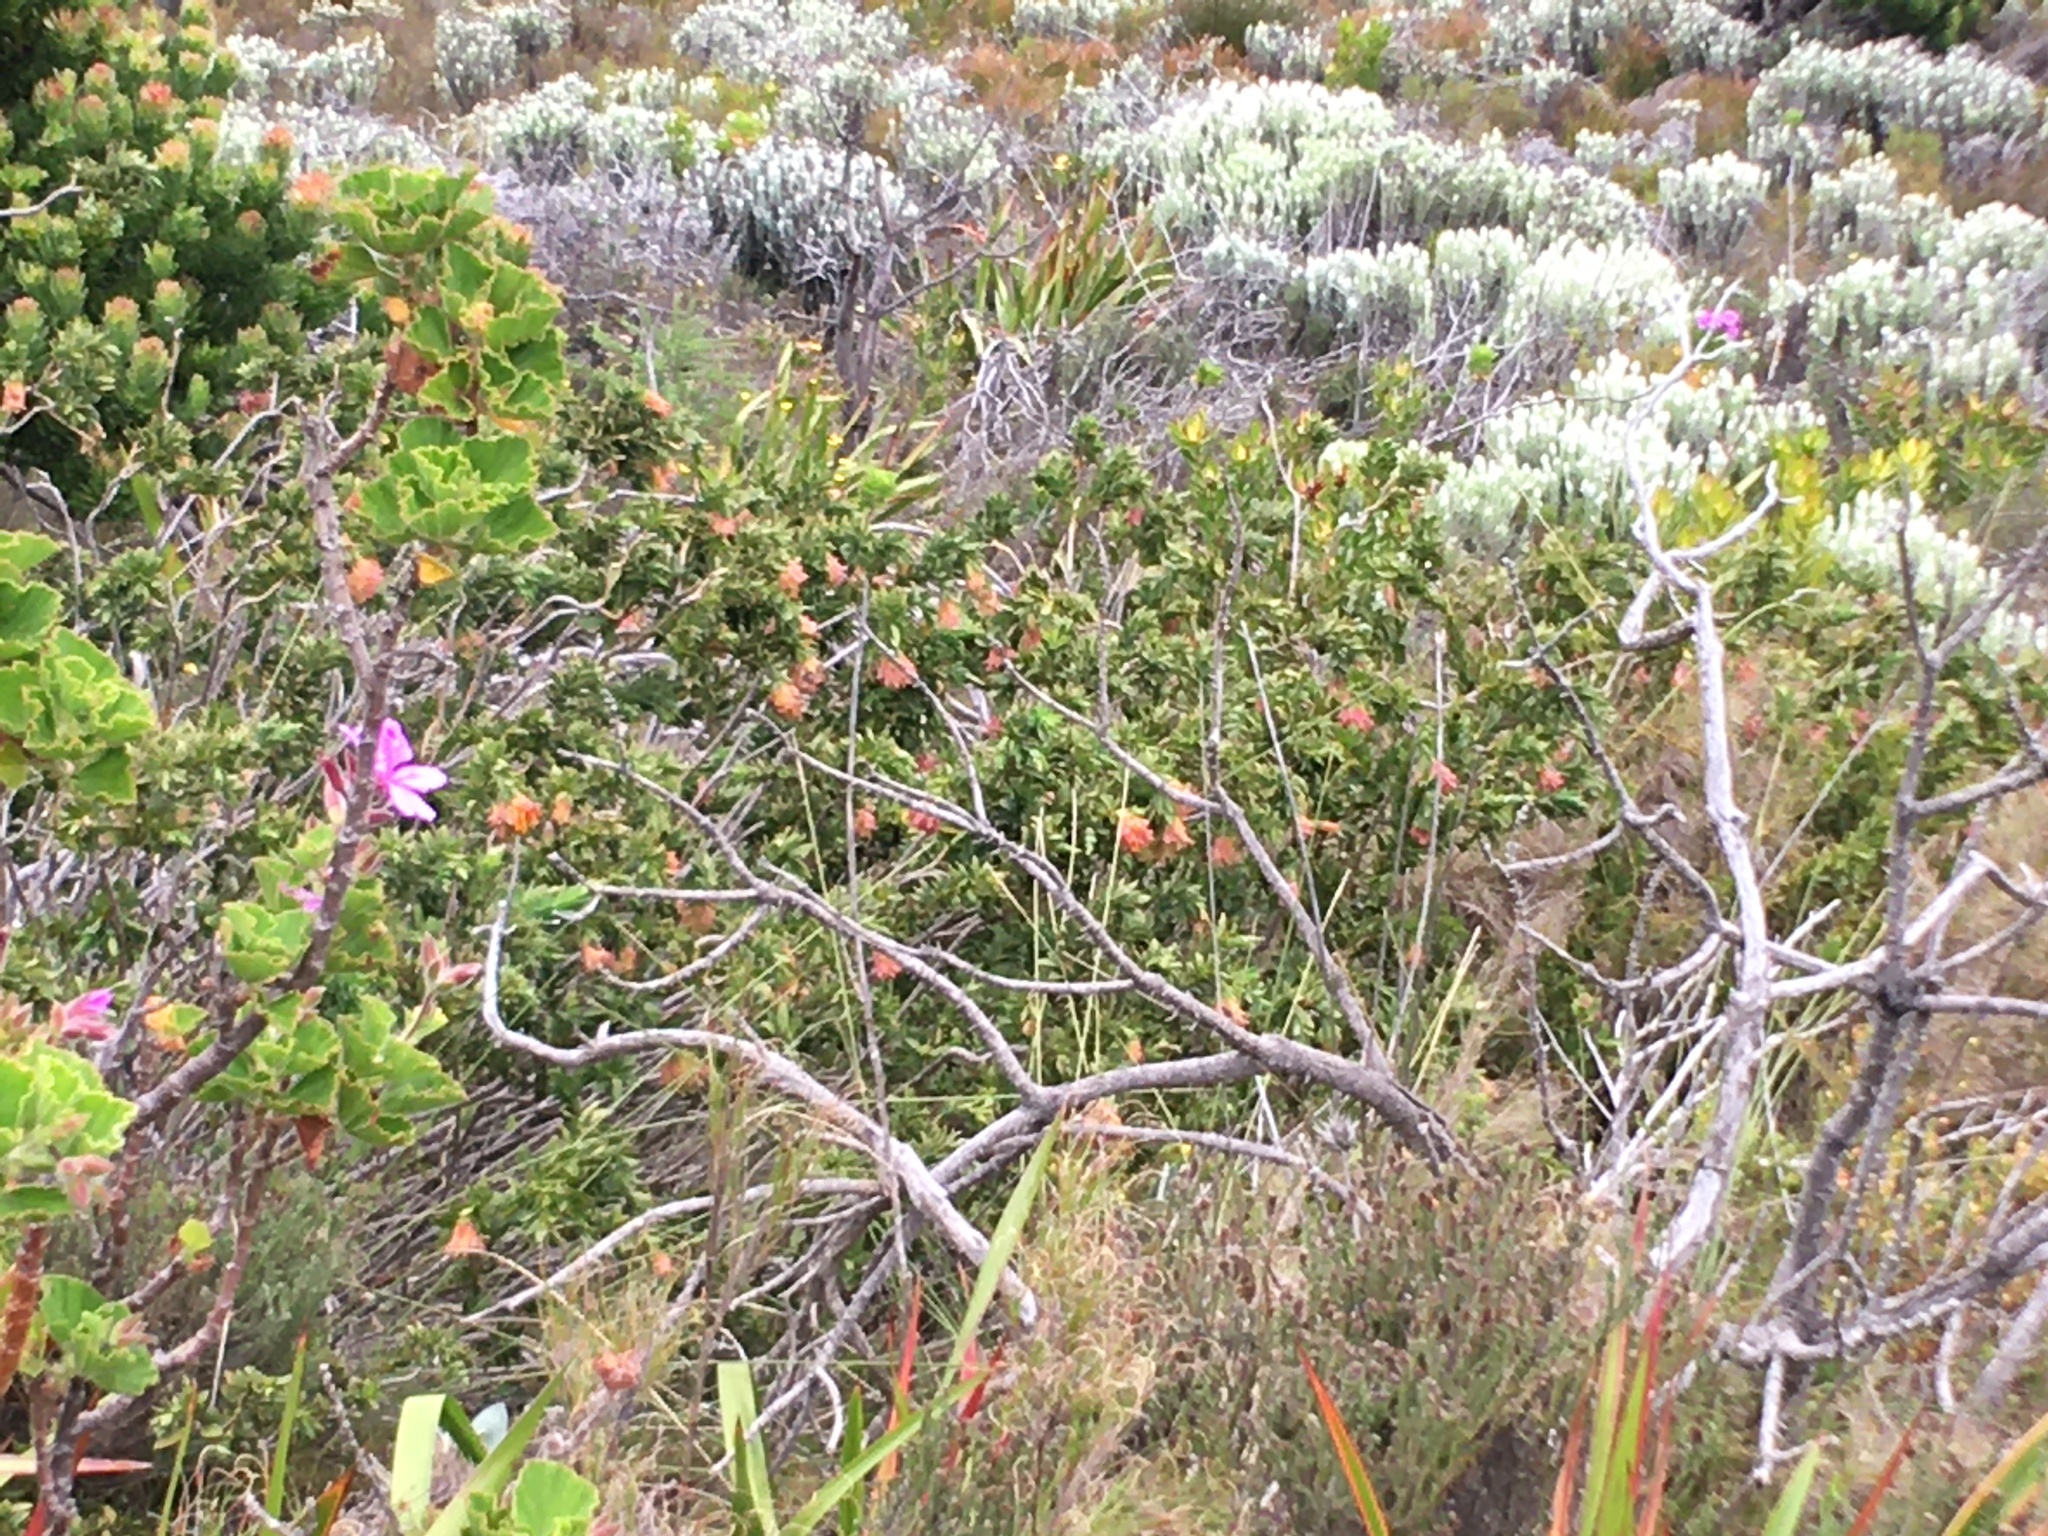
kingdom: Plantae
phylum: Tracheophyta
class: Magnoliopsida
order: Fabales
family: Fabaceae
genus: Liparia
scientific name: Liparia splendens
